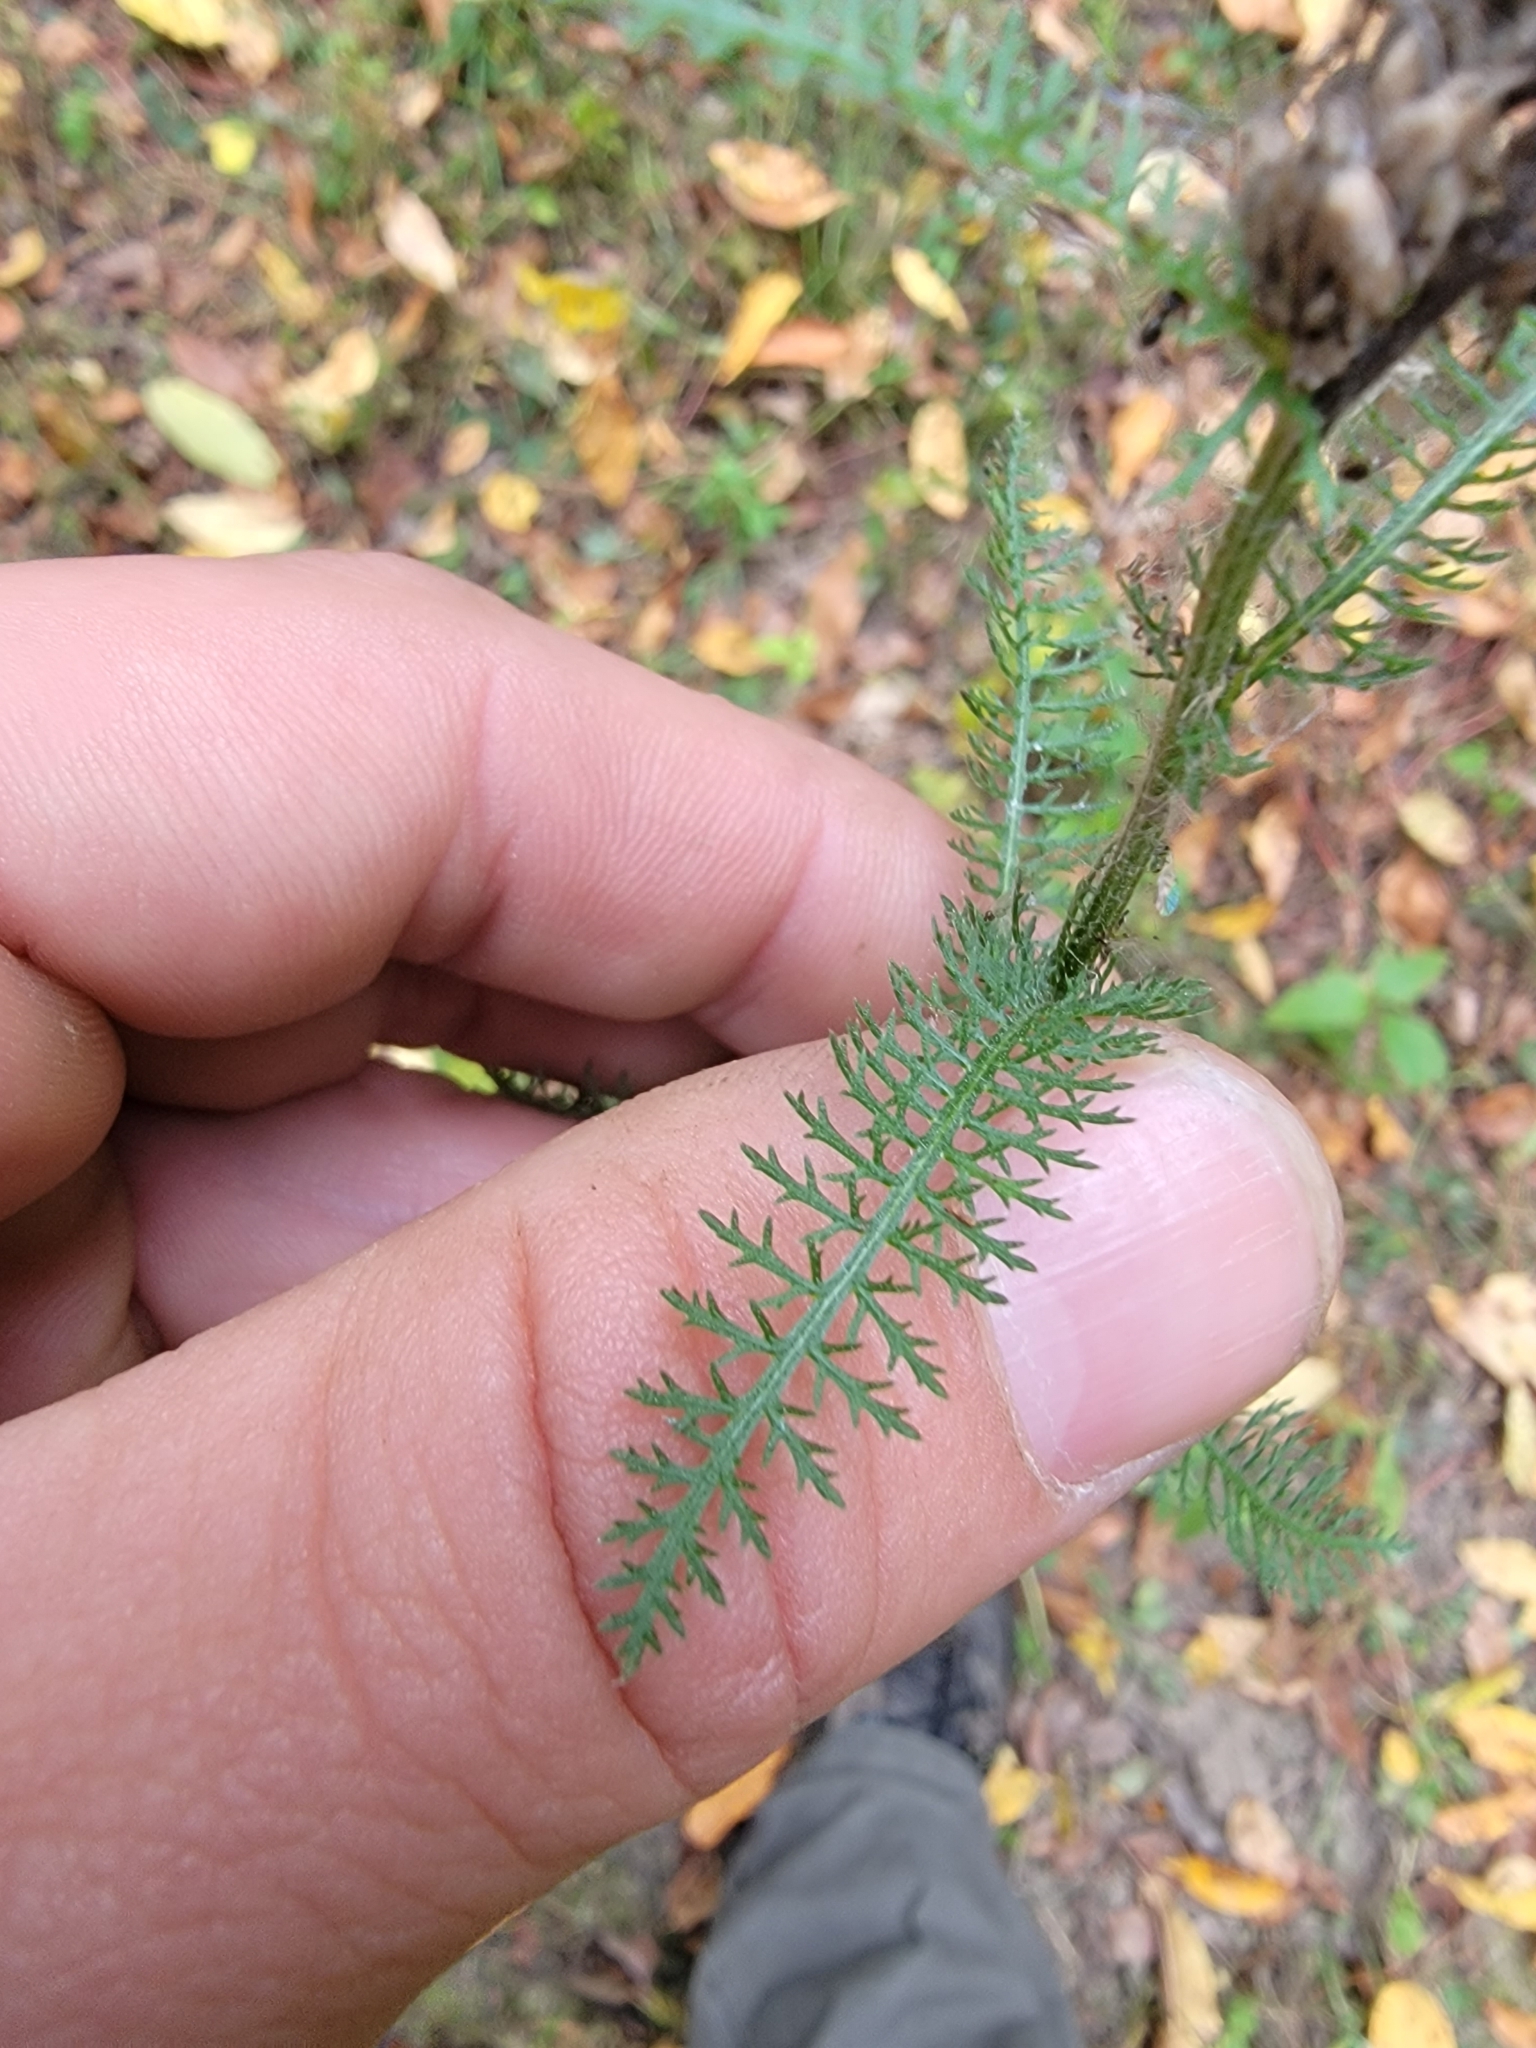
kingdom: Plantae
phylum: Tracheophyta
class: Magnoliopsida
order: Asterales
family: Asteraceae
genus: Achillea
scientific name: Achillea millefolium
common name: Yarrow
